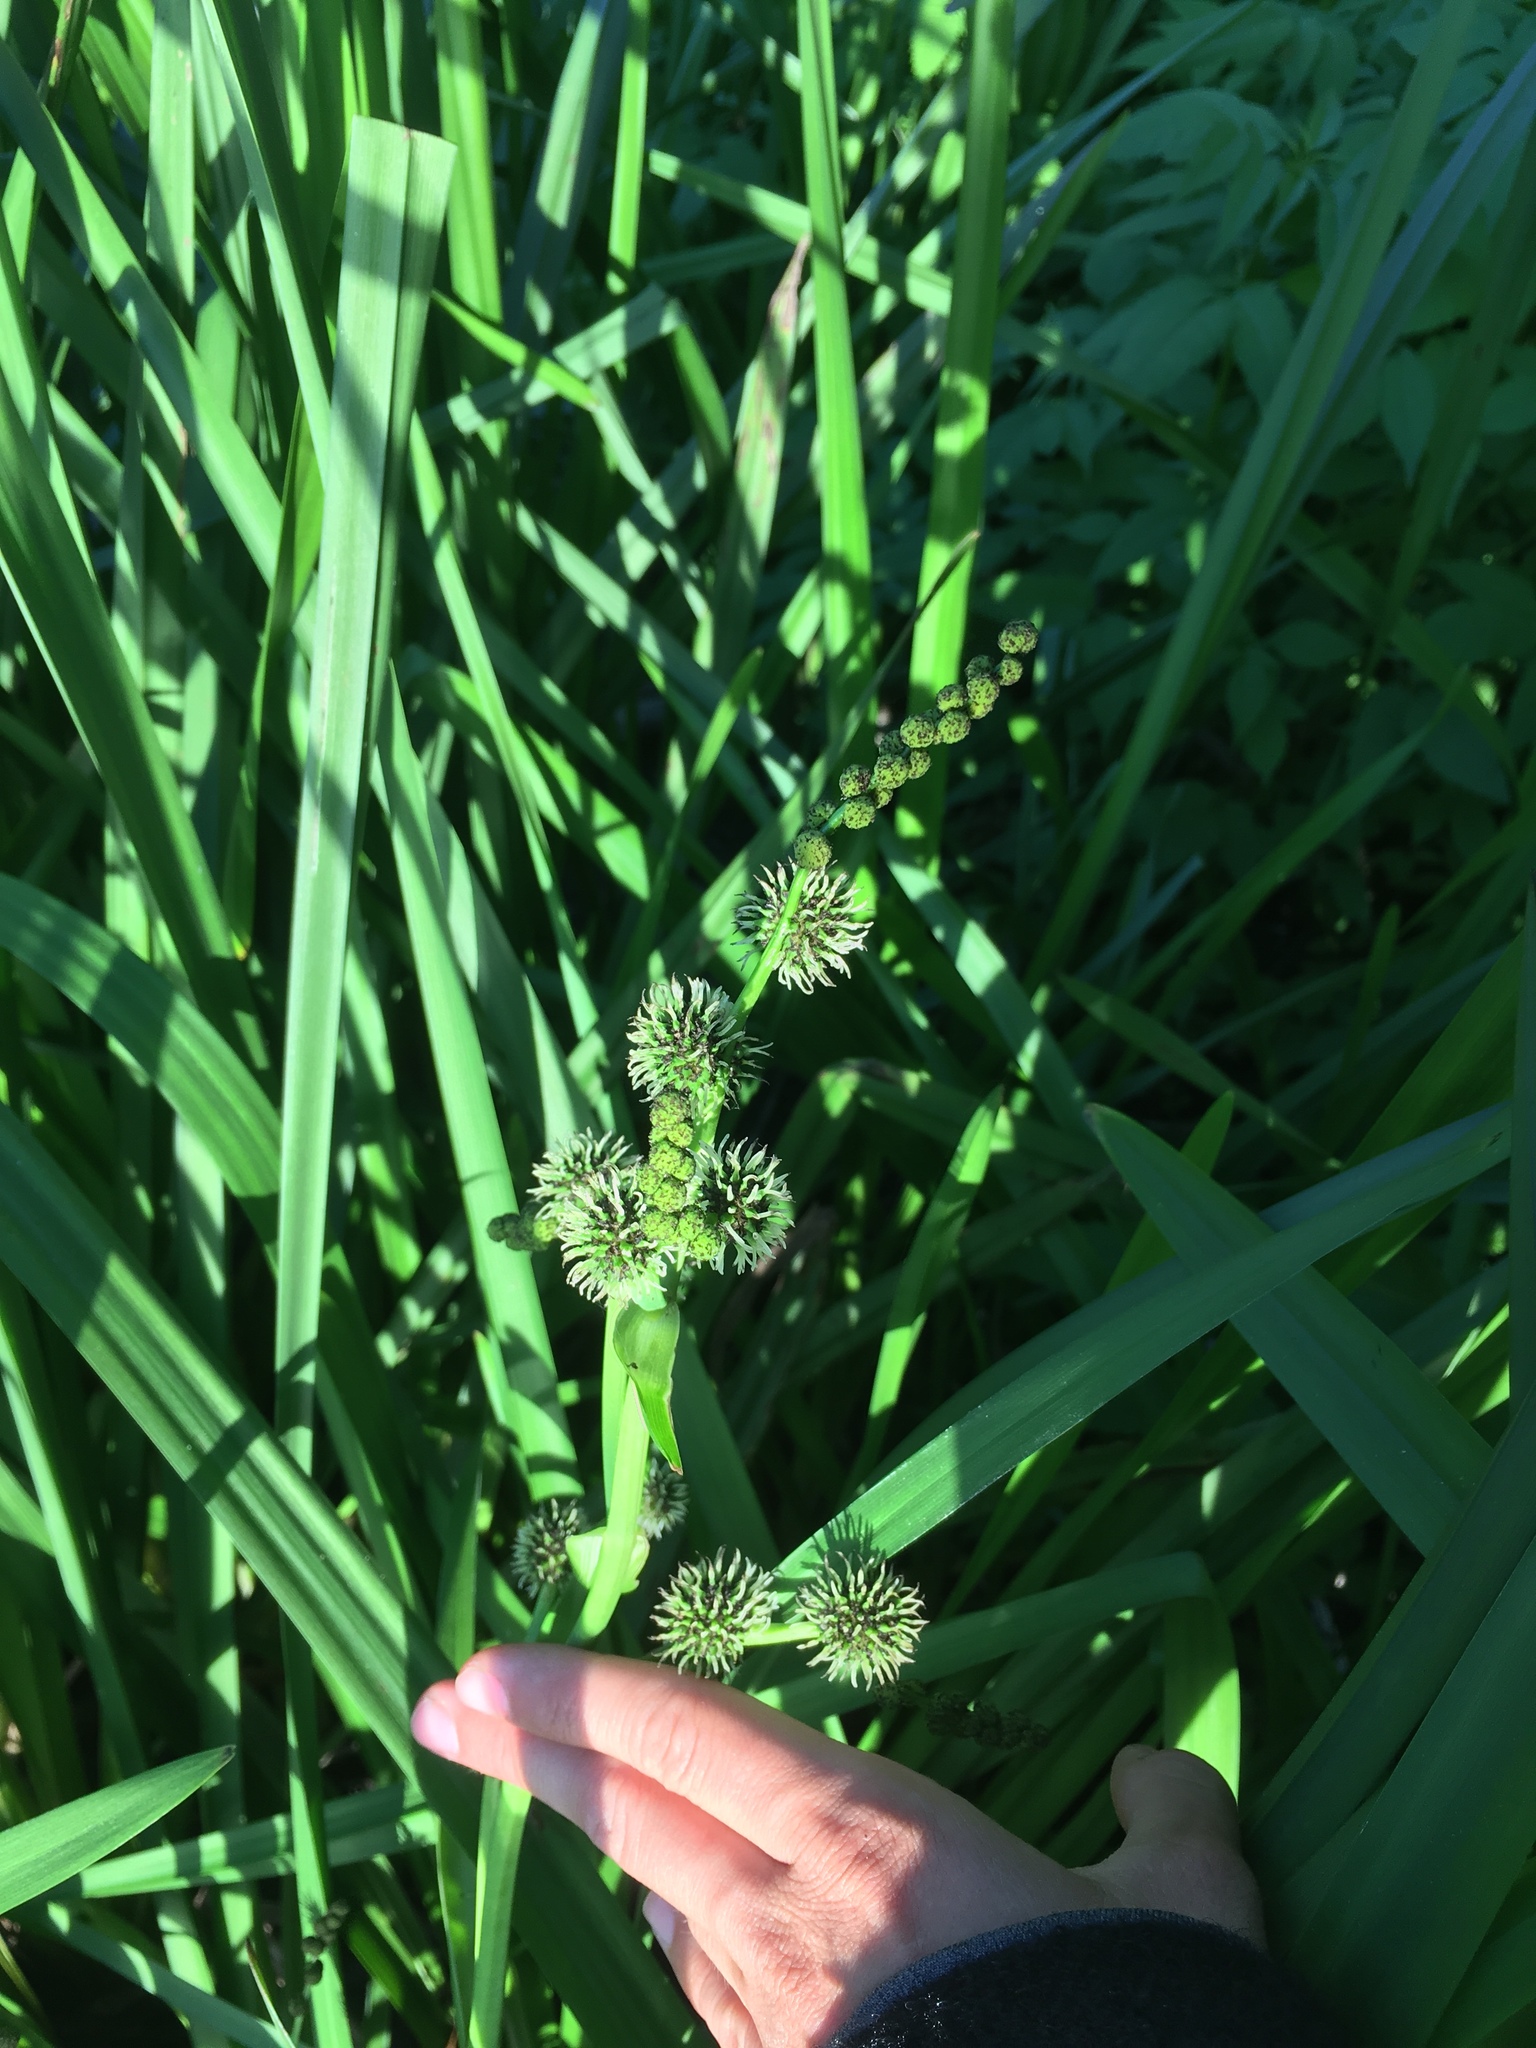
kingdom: Plantae
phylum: Tracheophyta
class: Liliopsida
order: Poales
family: Typhaceae
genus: Sparganium
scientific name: Sparganium erectum
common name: Branched bur-reed
